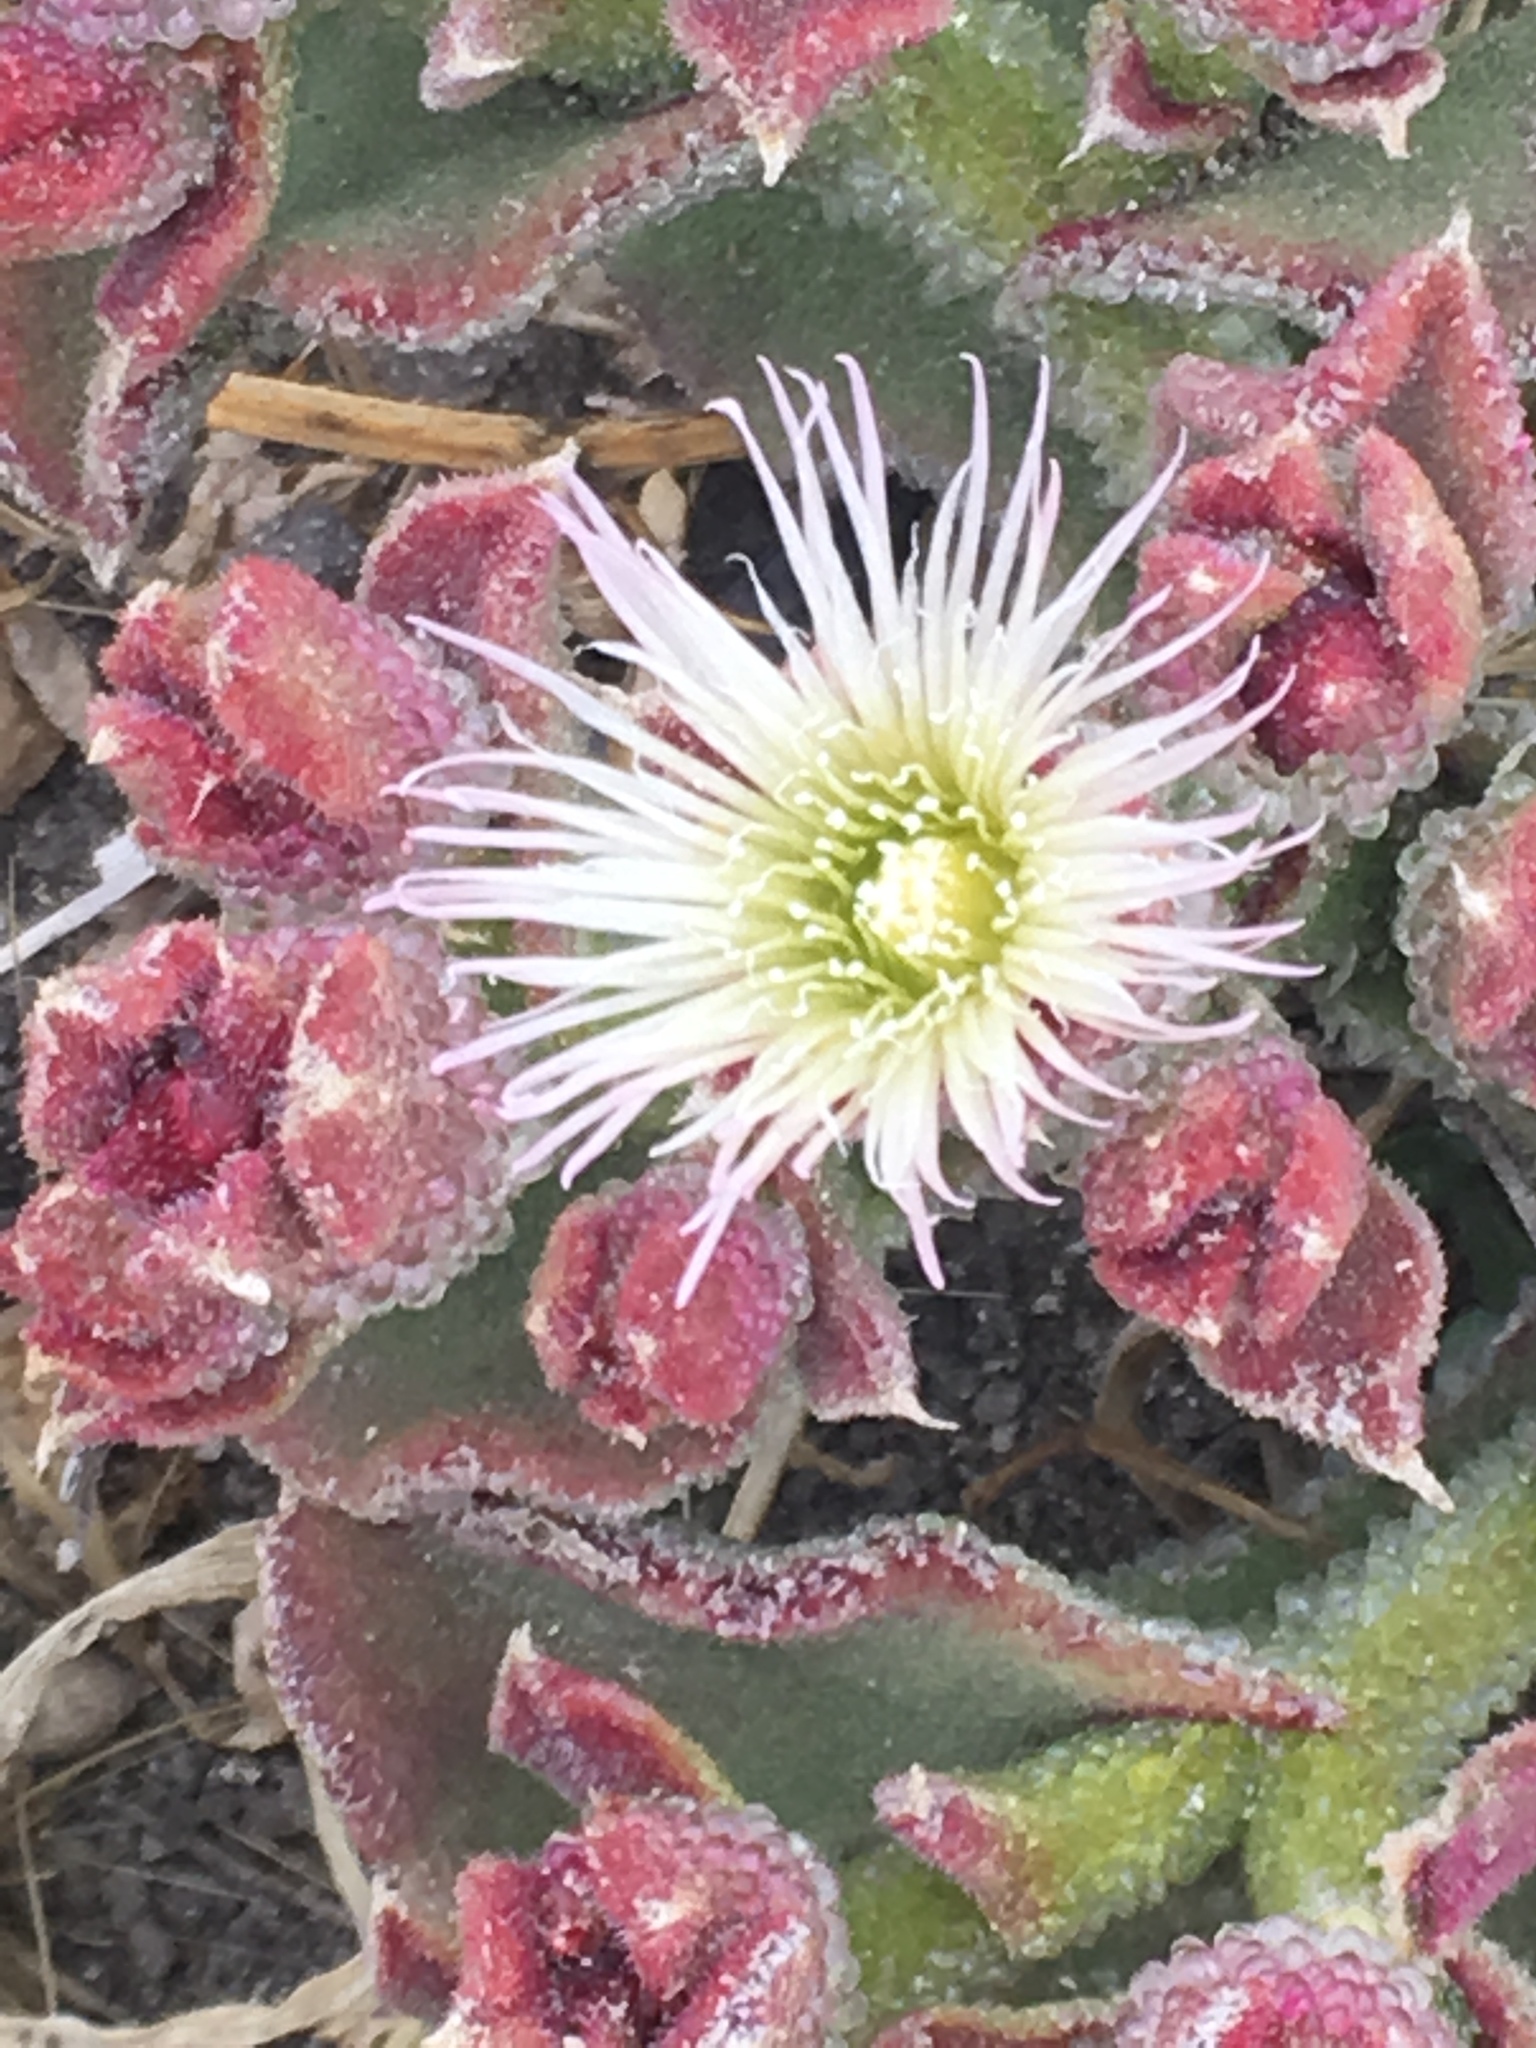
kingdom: Plantae
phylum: Tracheophyta
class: Magnoliopsida
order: Caryophyllales
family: Aizoaceae
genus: Mesembryanthemum
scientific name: Mesembryanthemum crystallinum
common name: Common iceplant
